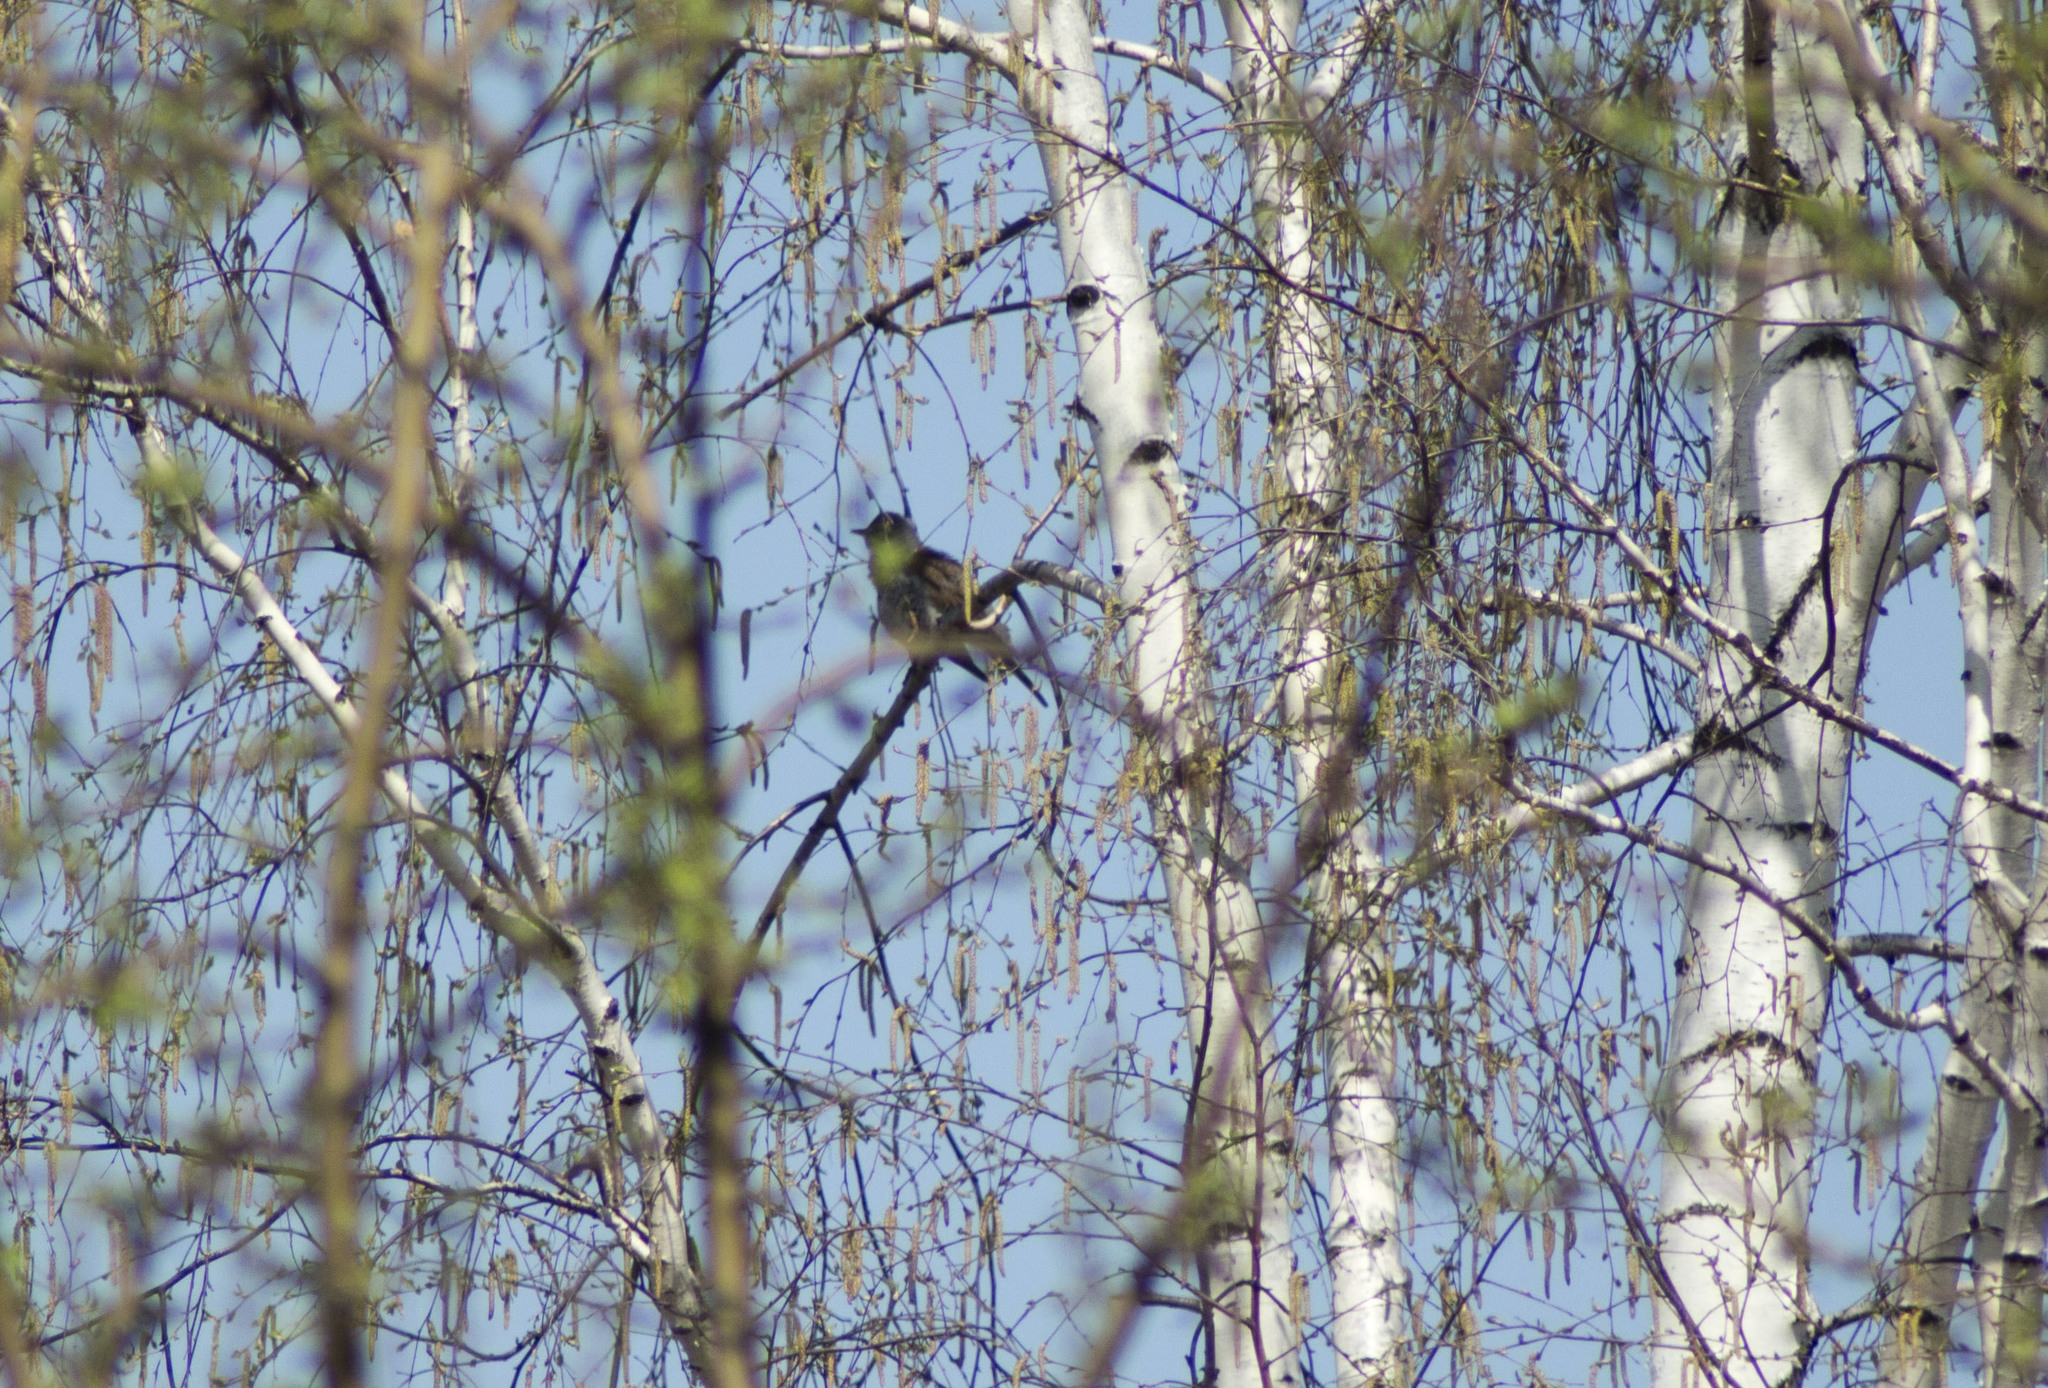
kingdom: Animalia
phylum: Chordata
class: Aves
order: Passeriformes
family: Turdidae
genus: Turdus
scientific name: Turdus pilaris
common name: Fieldfare
